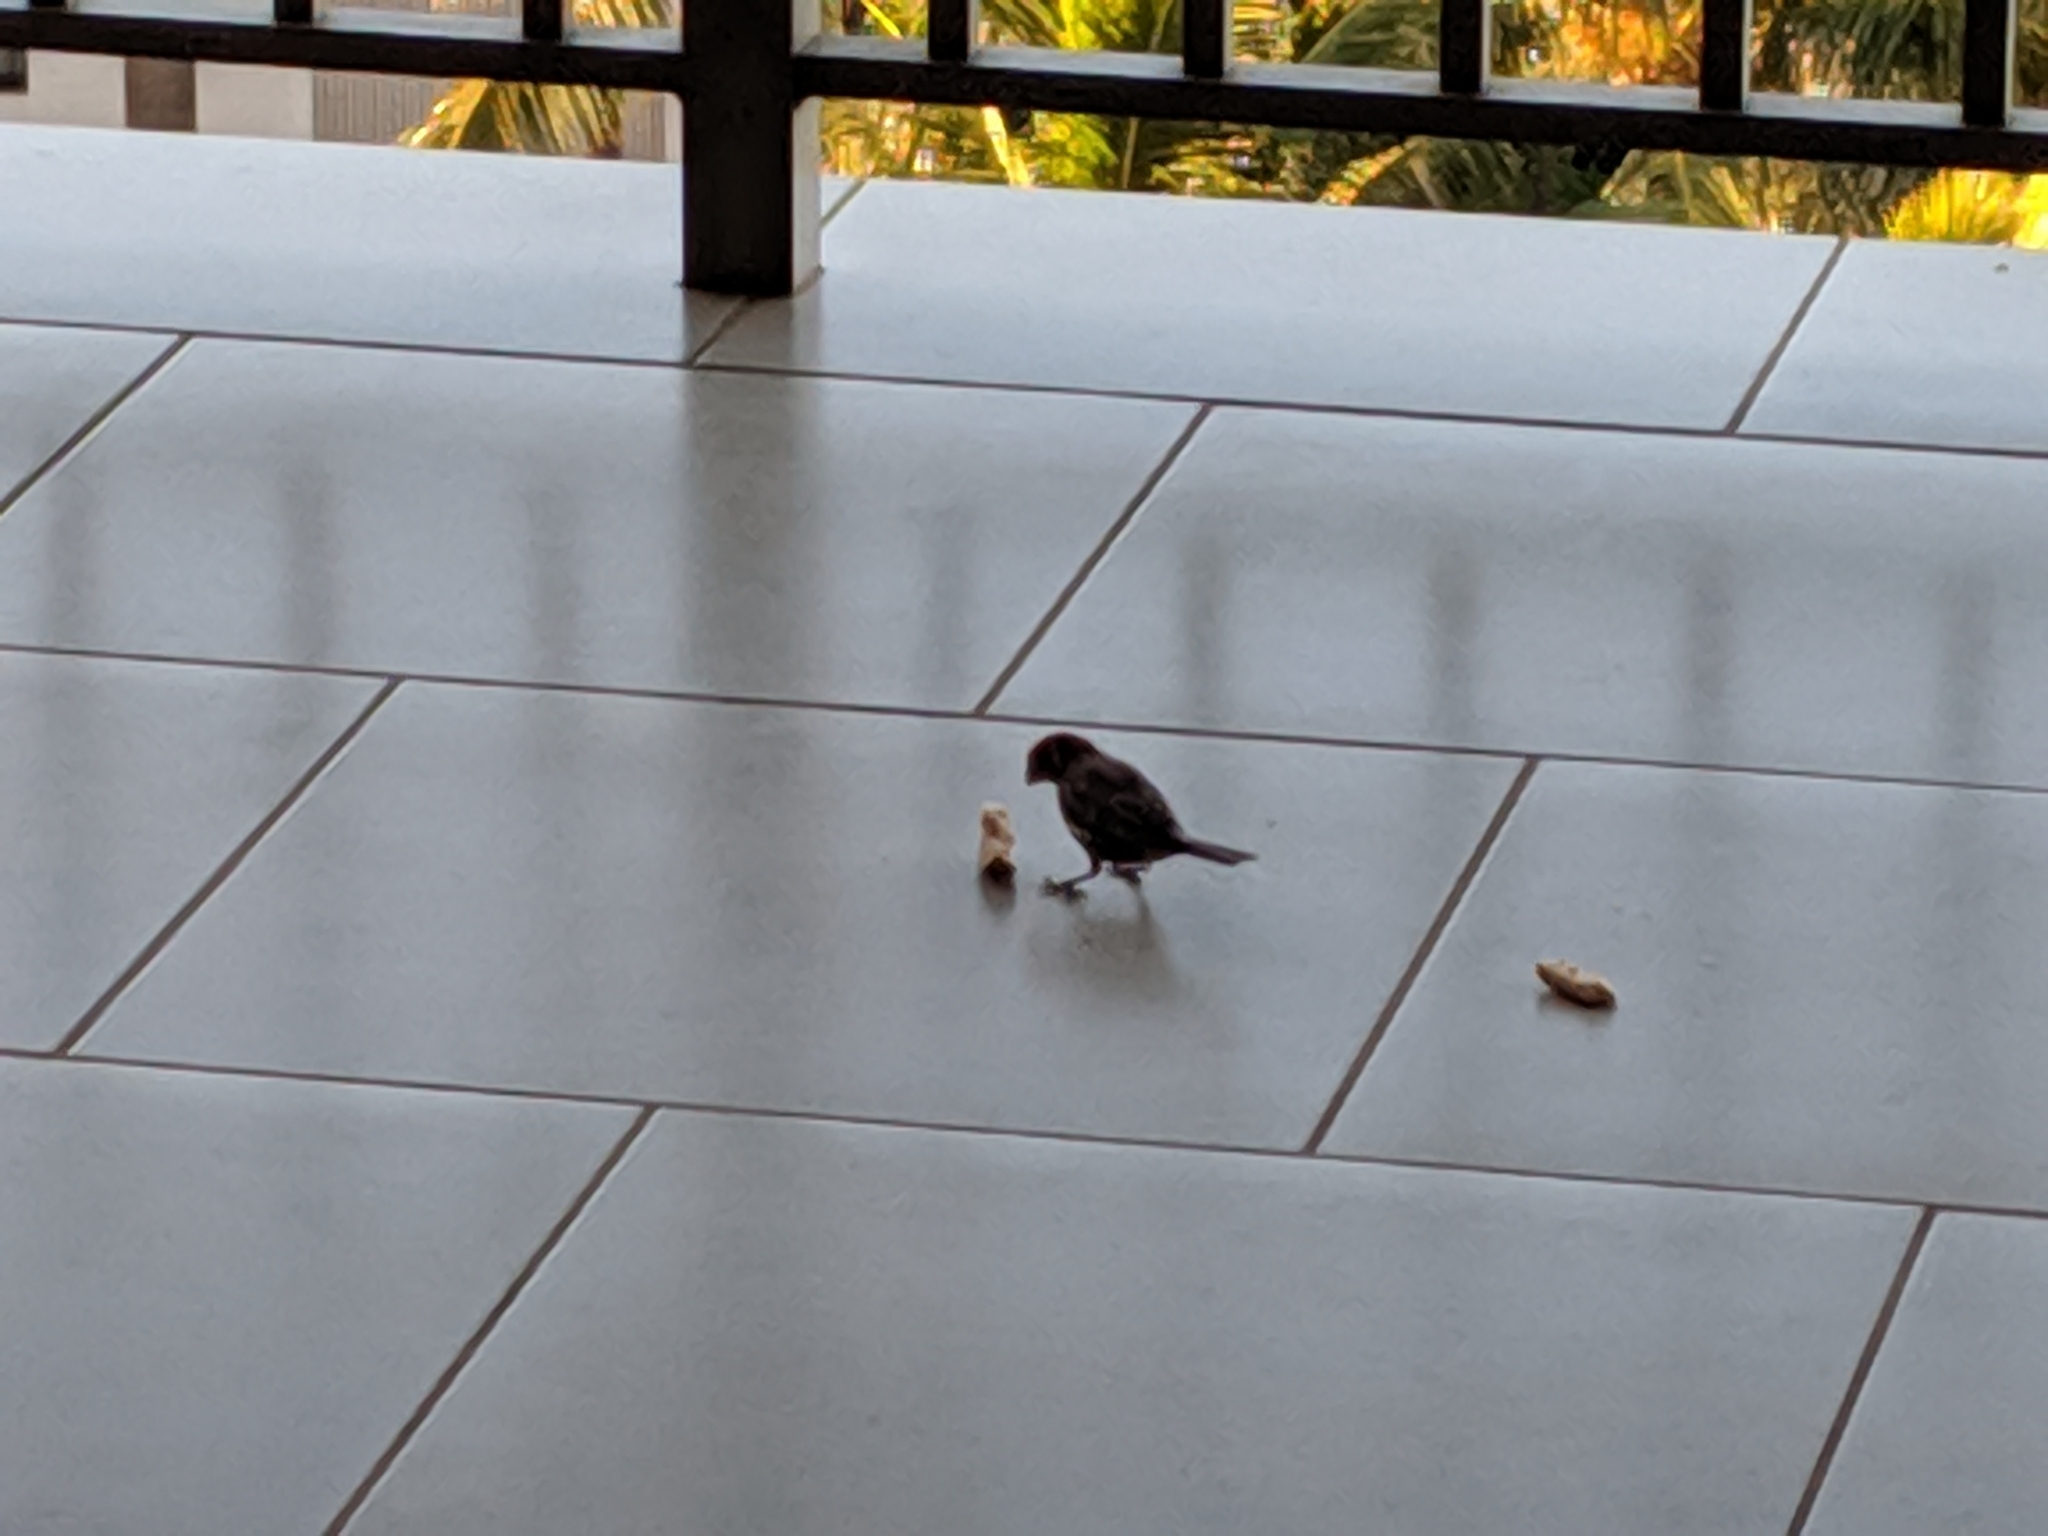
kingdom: Animalia
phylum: Chordata
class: Aves
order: Passeriformes
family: Fringillidae
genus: Haemorhous
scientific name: Haemorhous mexicanus
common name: House finch
